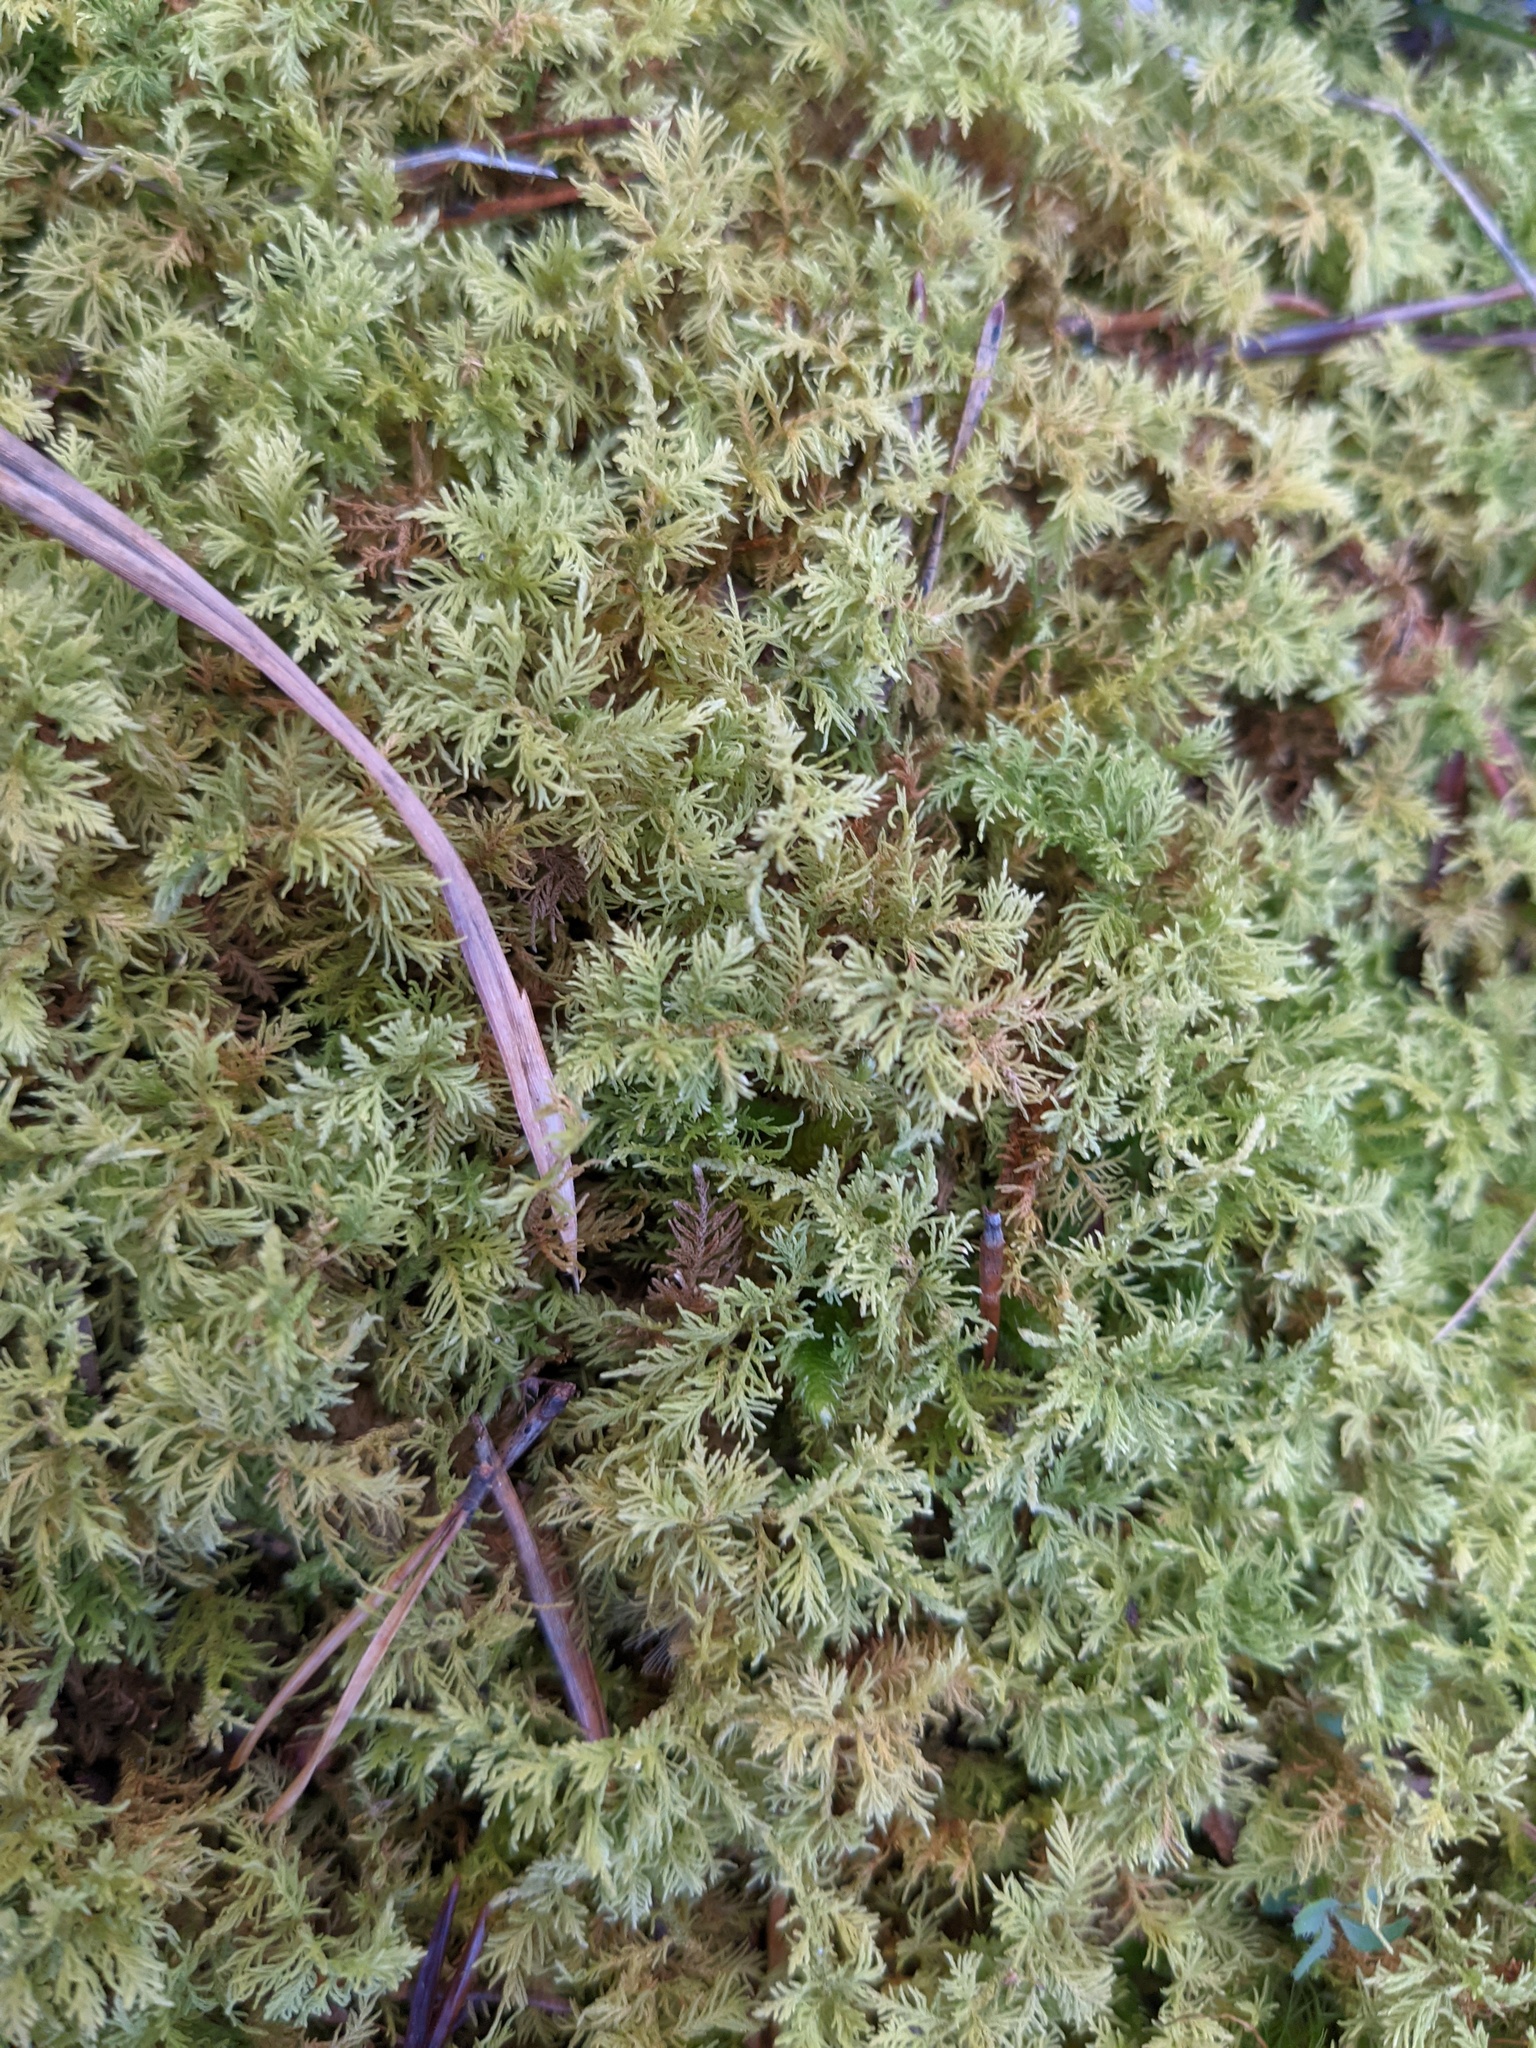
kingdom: Plantae
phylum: Bryophyta
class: Bryopsida
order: Hypnales
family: Thuidiaceae
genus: Thuidium
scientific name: Thuidium delicatulum
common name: Delicate fern moss
